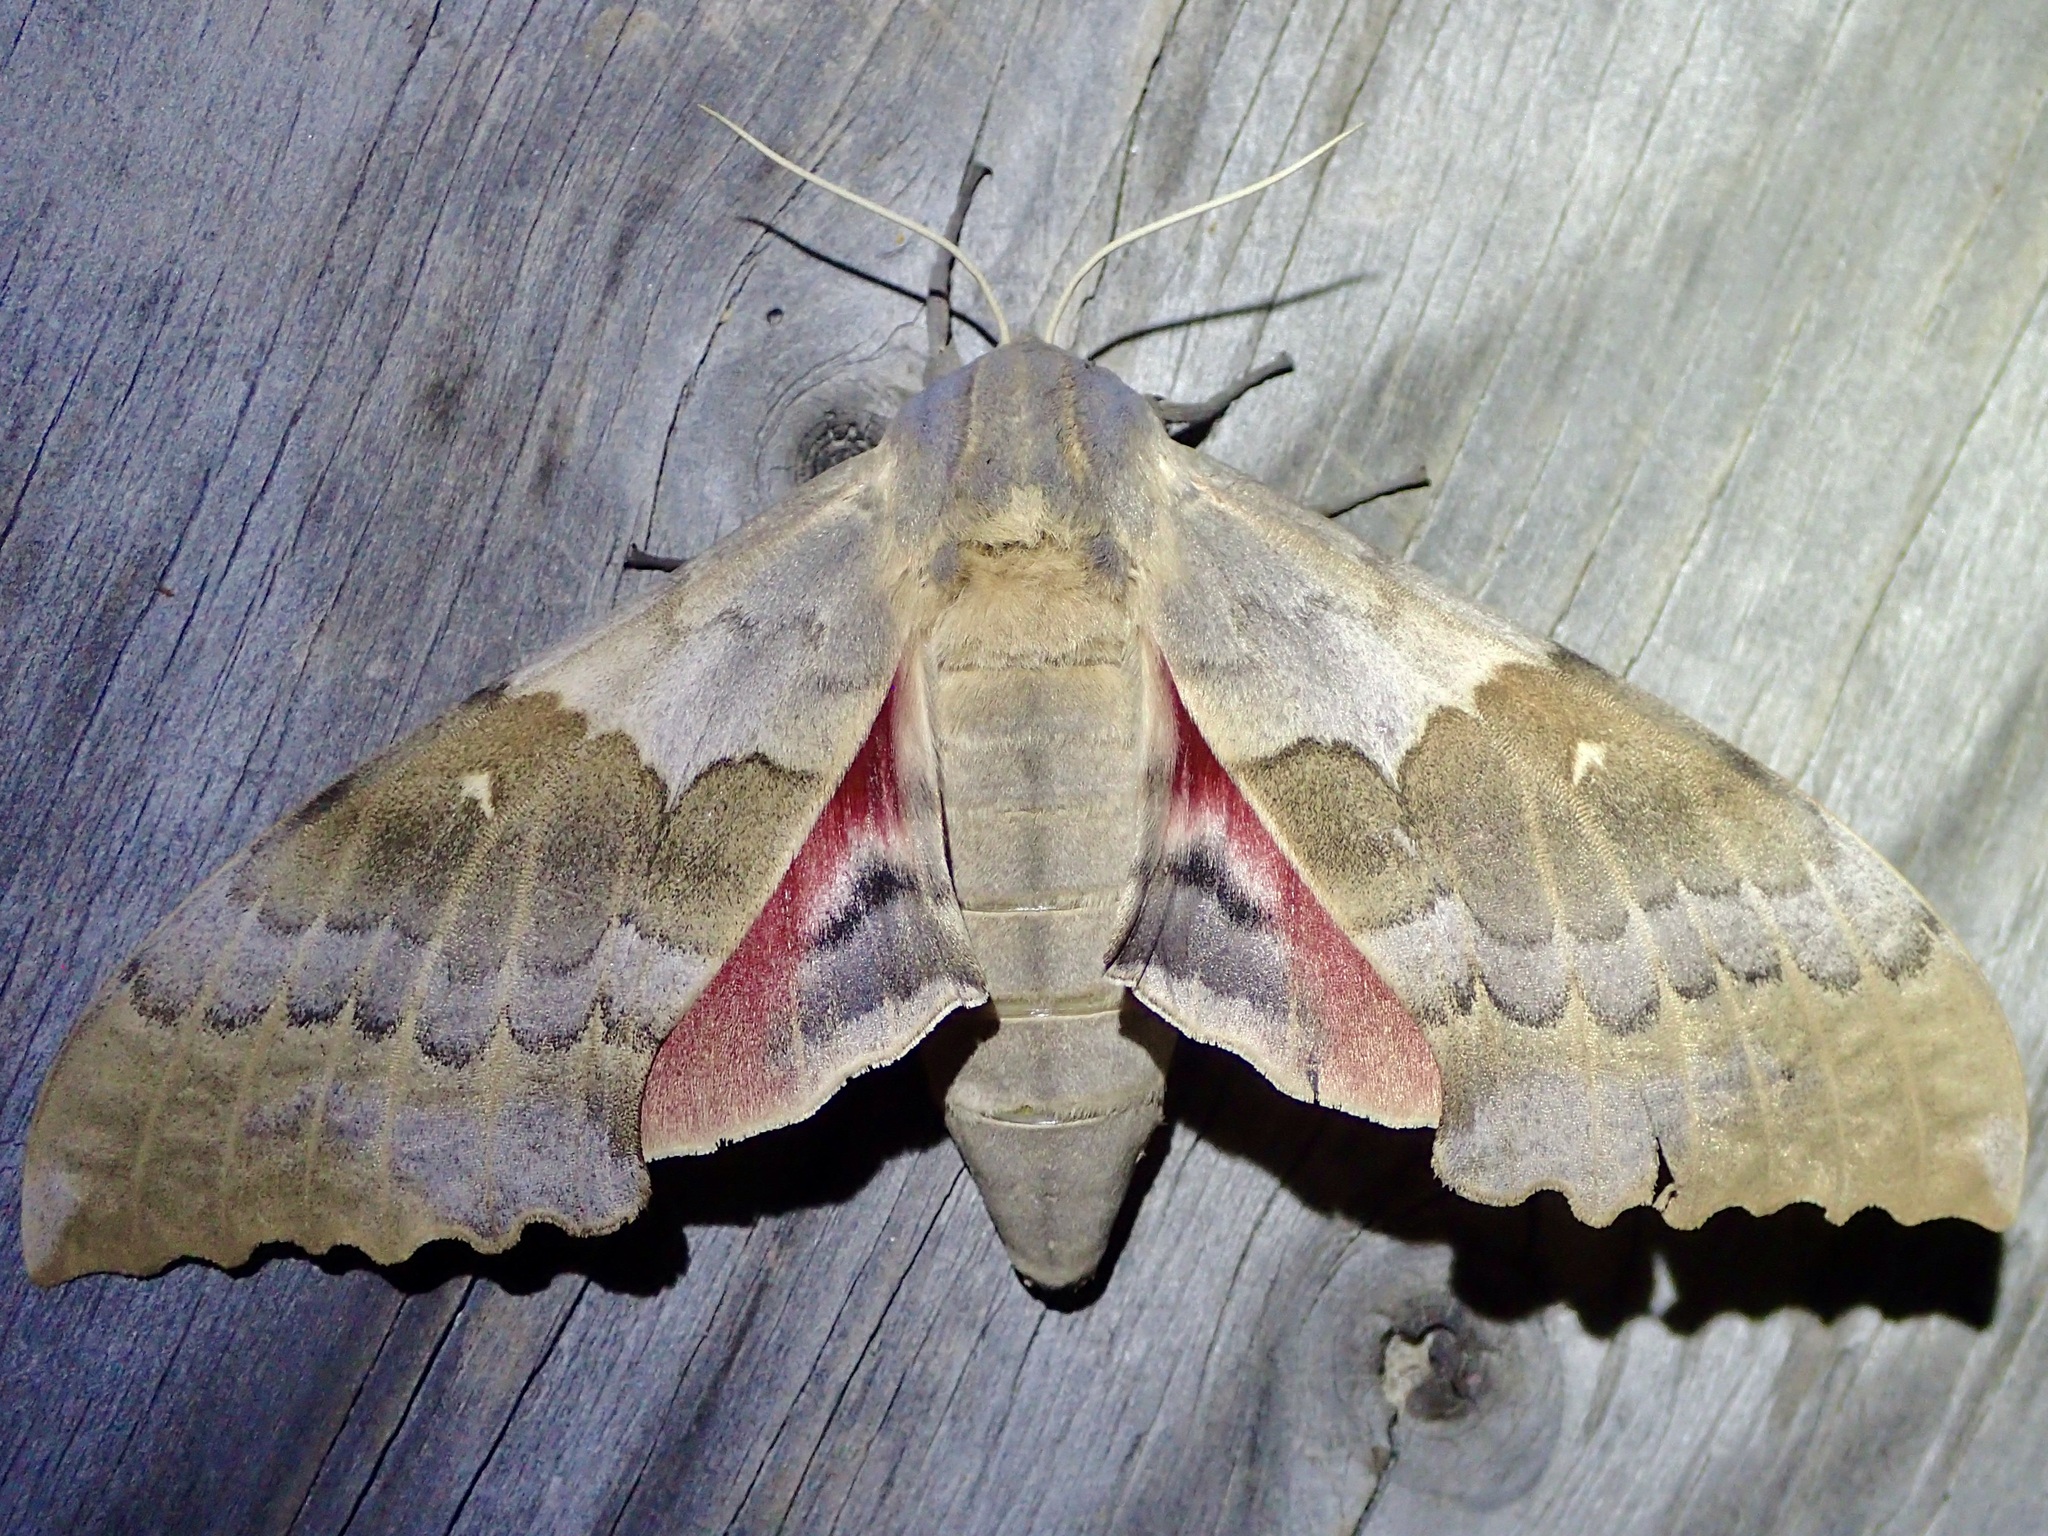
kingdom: Animalia
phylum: Arthropoda
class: Insecta
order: Lepidoptera
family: Sphingidae
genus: Pachysphinx
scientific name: Pachysphinx occidentalis
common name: Western poplar sphinx
